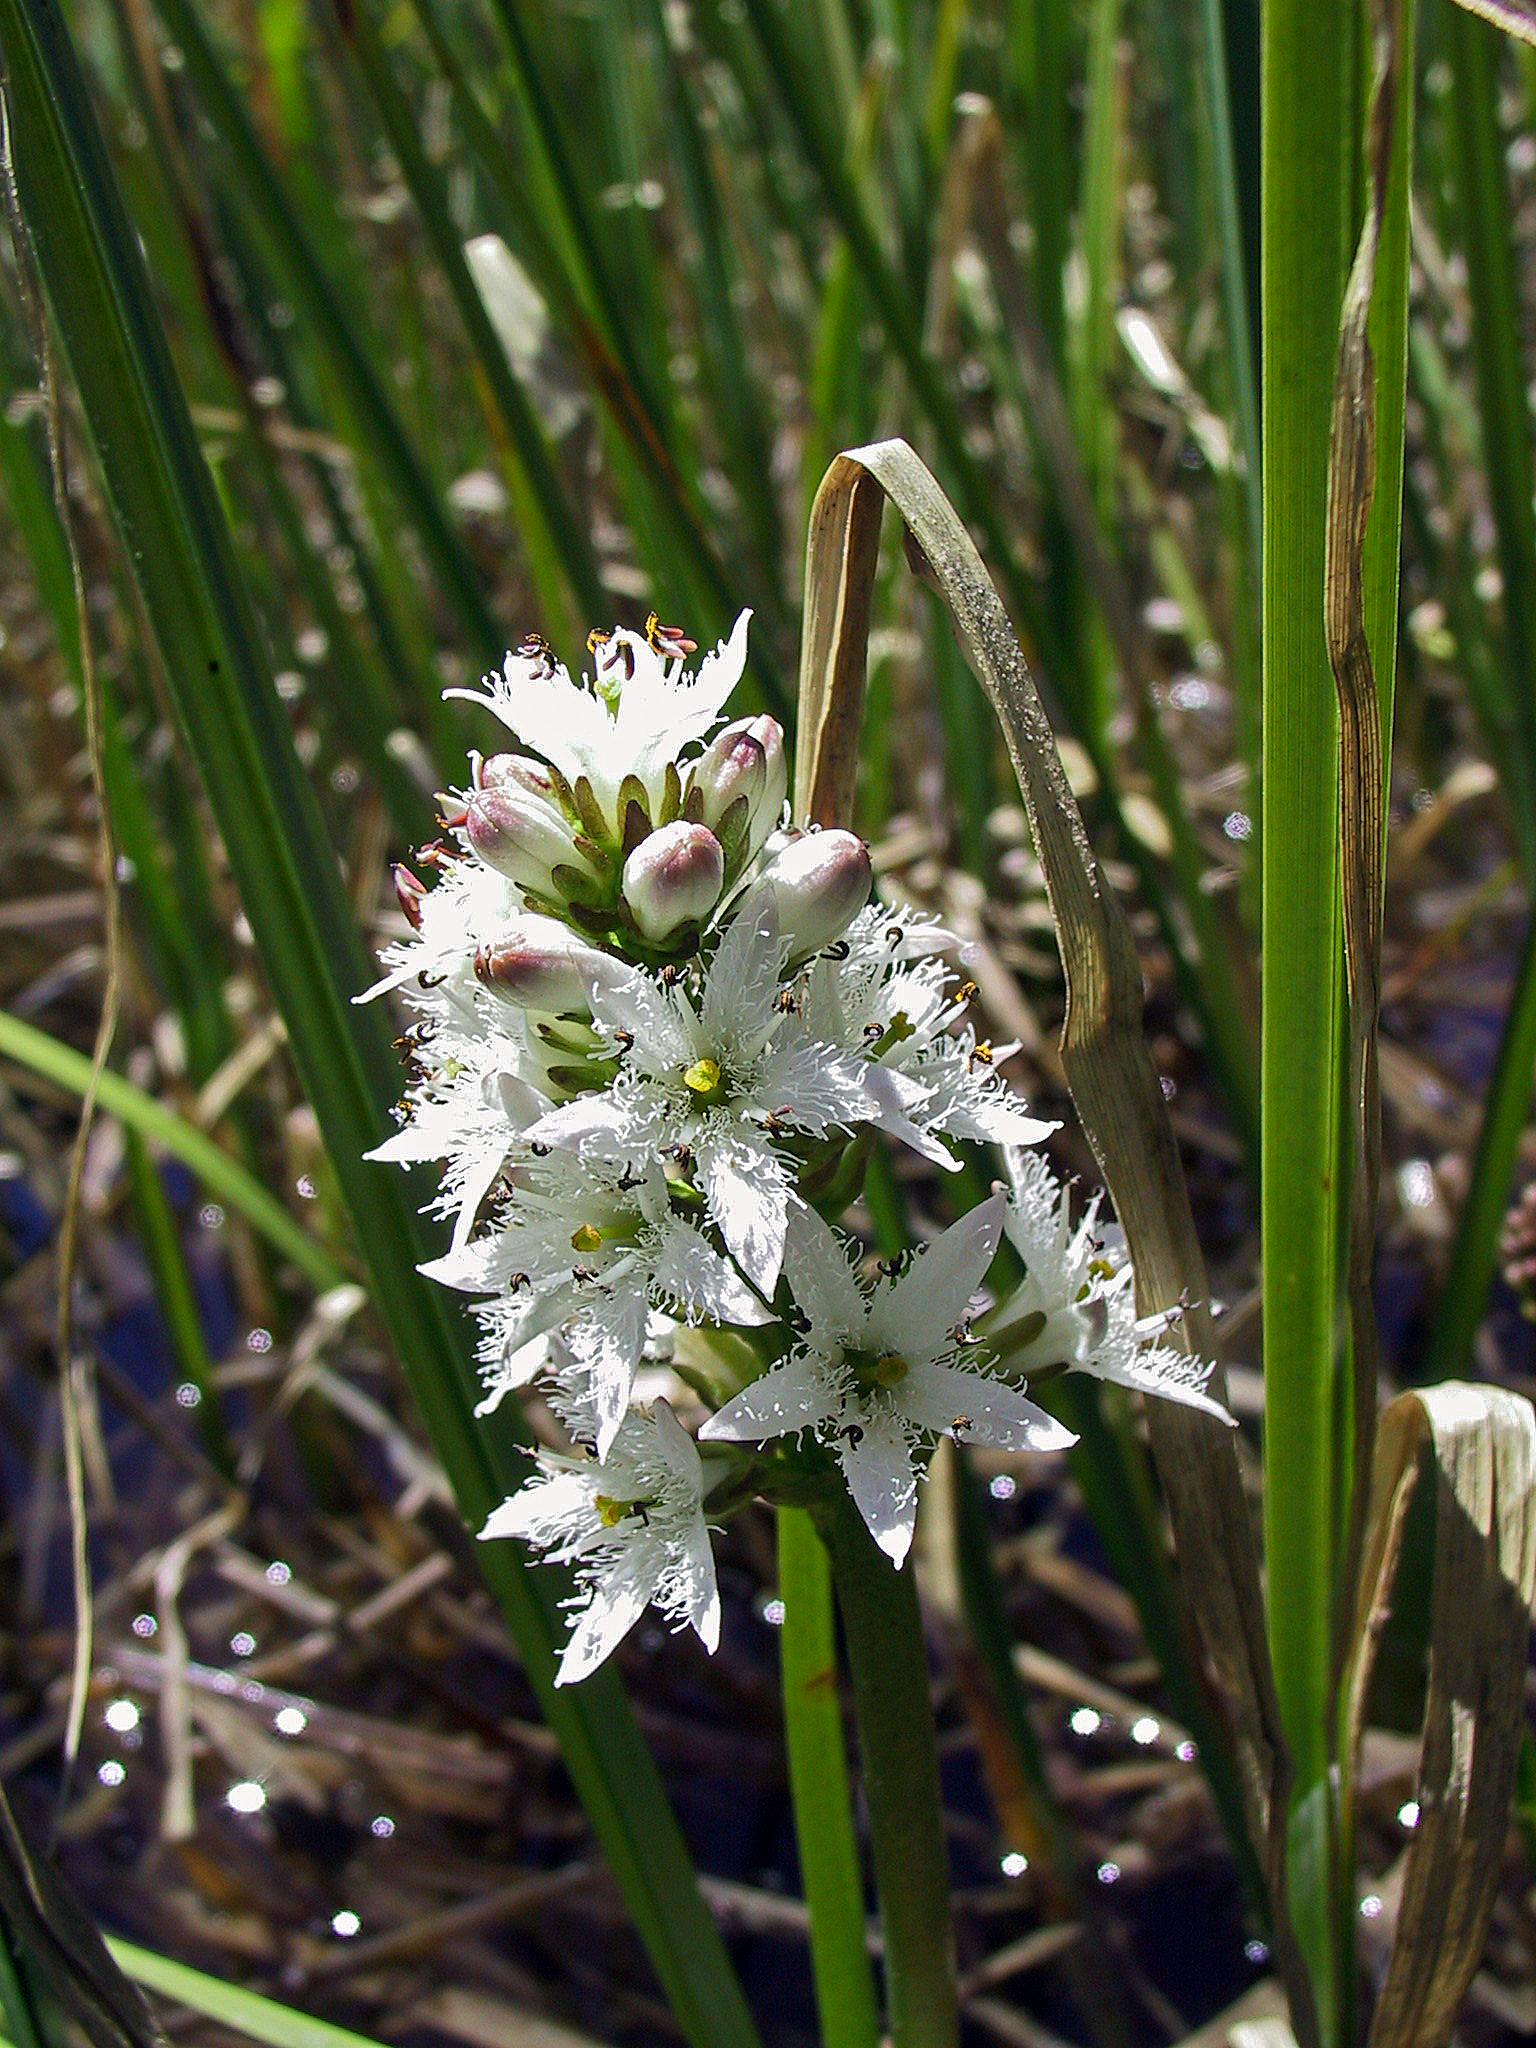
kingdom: Plantae
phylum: Tracheophyta
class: Magnoliopsida
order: Asterales
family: Menyanthaceae
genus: Menyanthes
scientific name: Menyanthes trifoliata
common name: Bogbean
